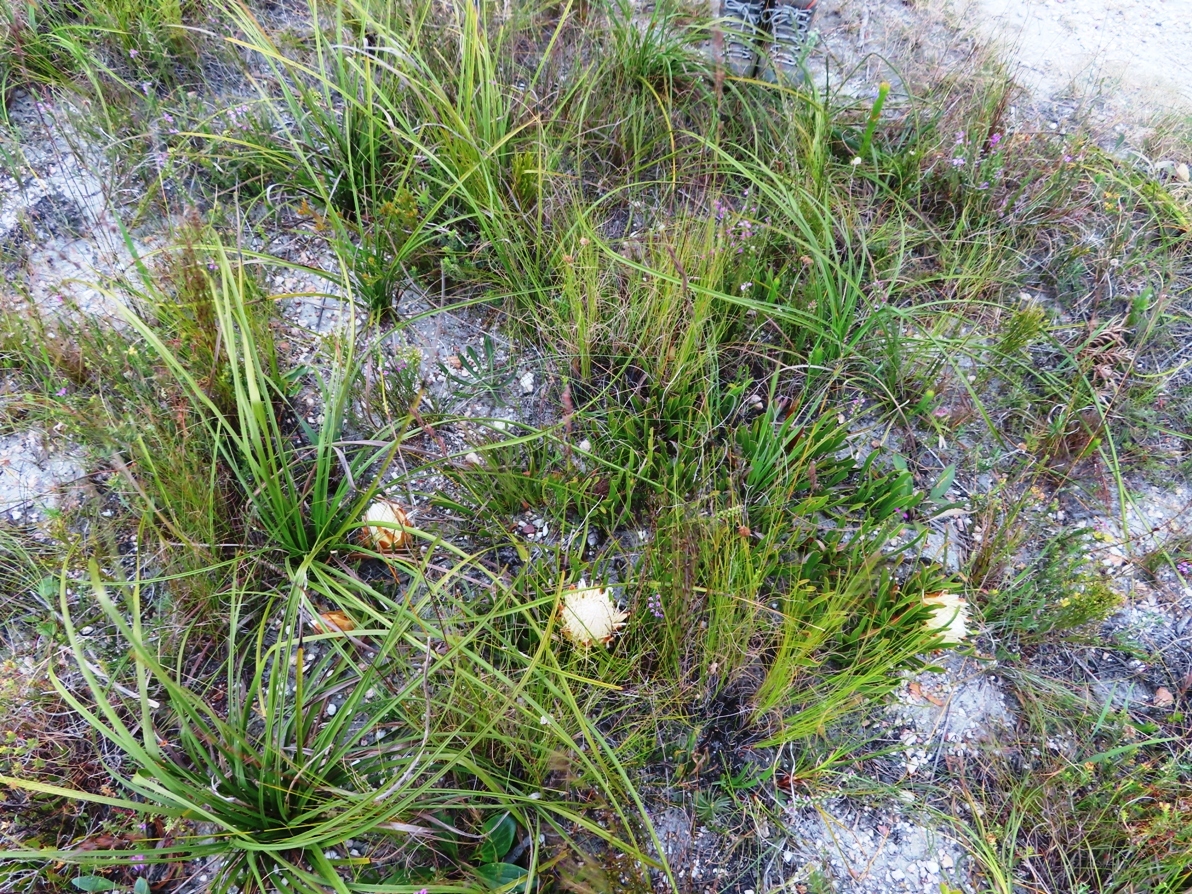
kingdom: Plantae
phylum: Tracheophyta
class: Magnoliopsida
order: Proteales
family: Proteaceae
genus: Protea
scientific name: Protea aspera
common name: Rough-leaf sugarbush
